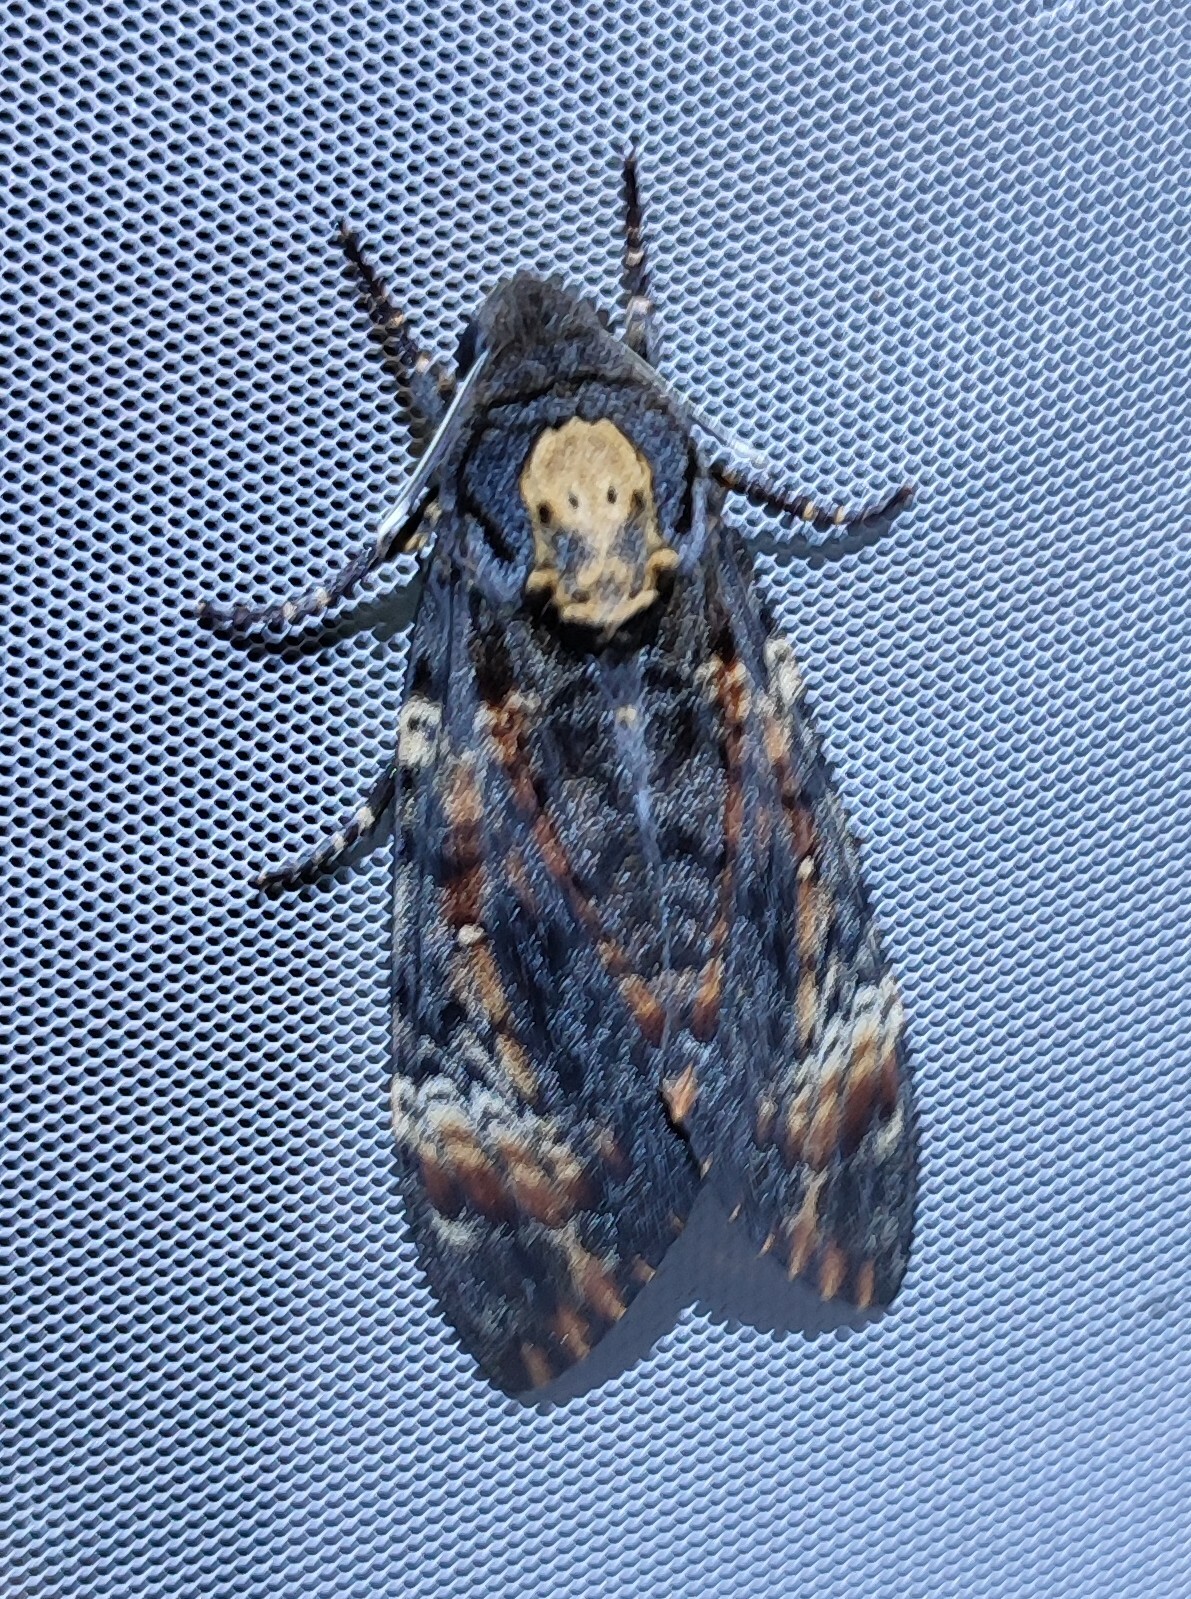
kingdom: Animalia
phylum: Arthropoda
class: Insecta
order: Lepidoptera
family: Sphingidae
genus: Acherontia
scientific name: Acherontia atropos
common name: Death's-head hawk moth
